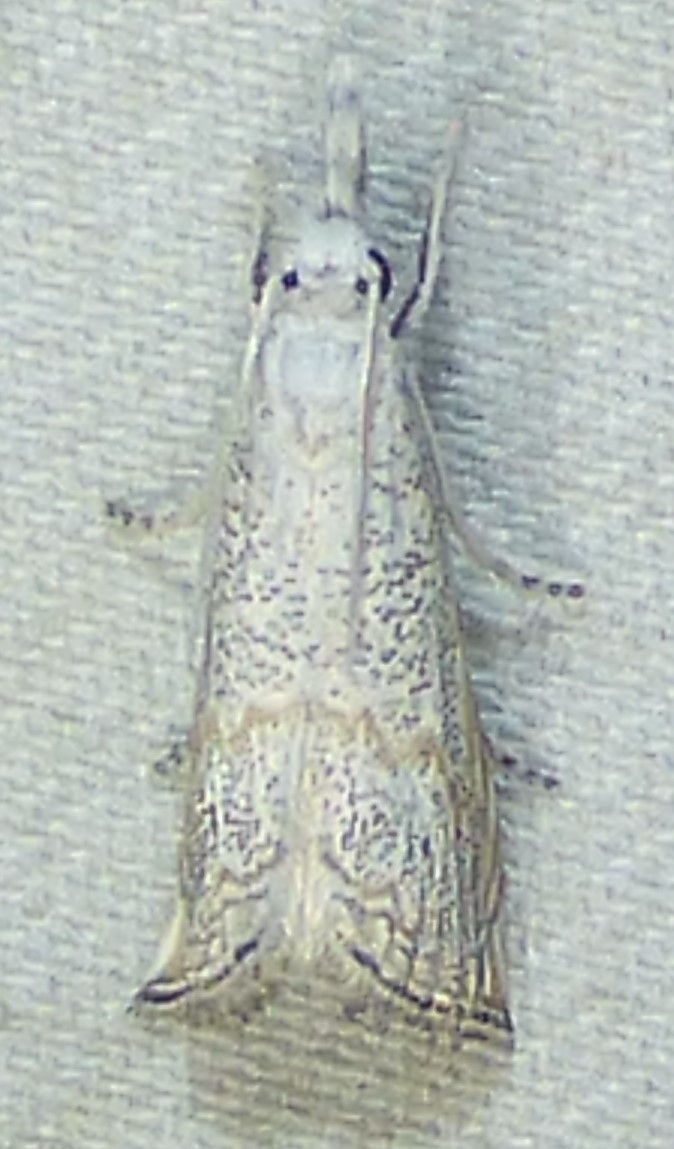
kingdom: Animalia
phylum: Arthropoda
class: Insecta
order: Lepidoptera
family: Crambidae
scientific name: Crambidae
